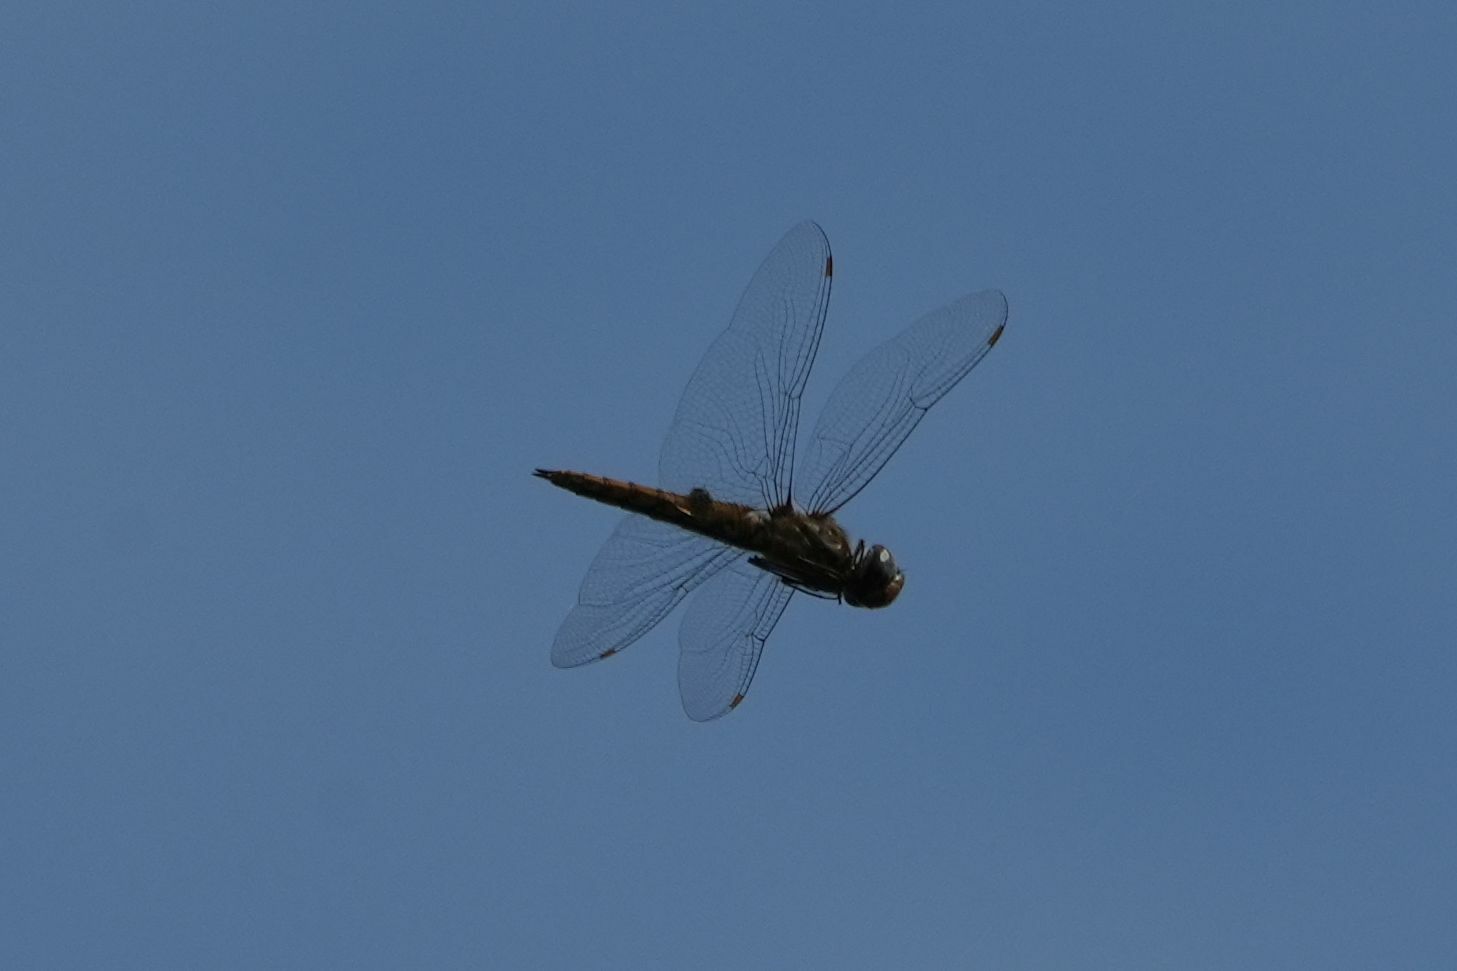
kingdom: Animalia
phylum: Arthropoda
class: Insecta
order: Odonata
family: Libellulidae
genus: Pantala
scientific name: Pantala hymenaea
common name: Spot-winged glider
